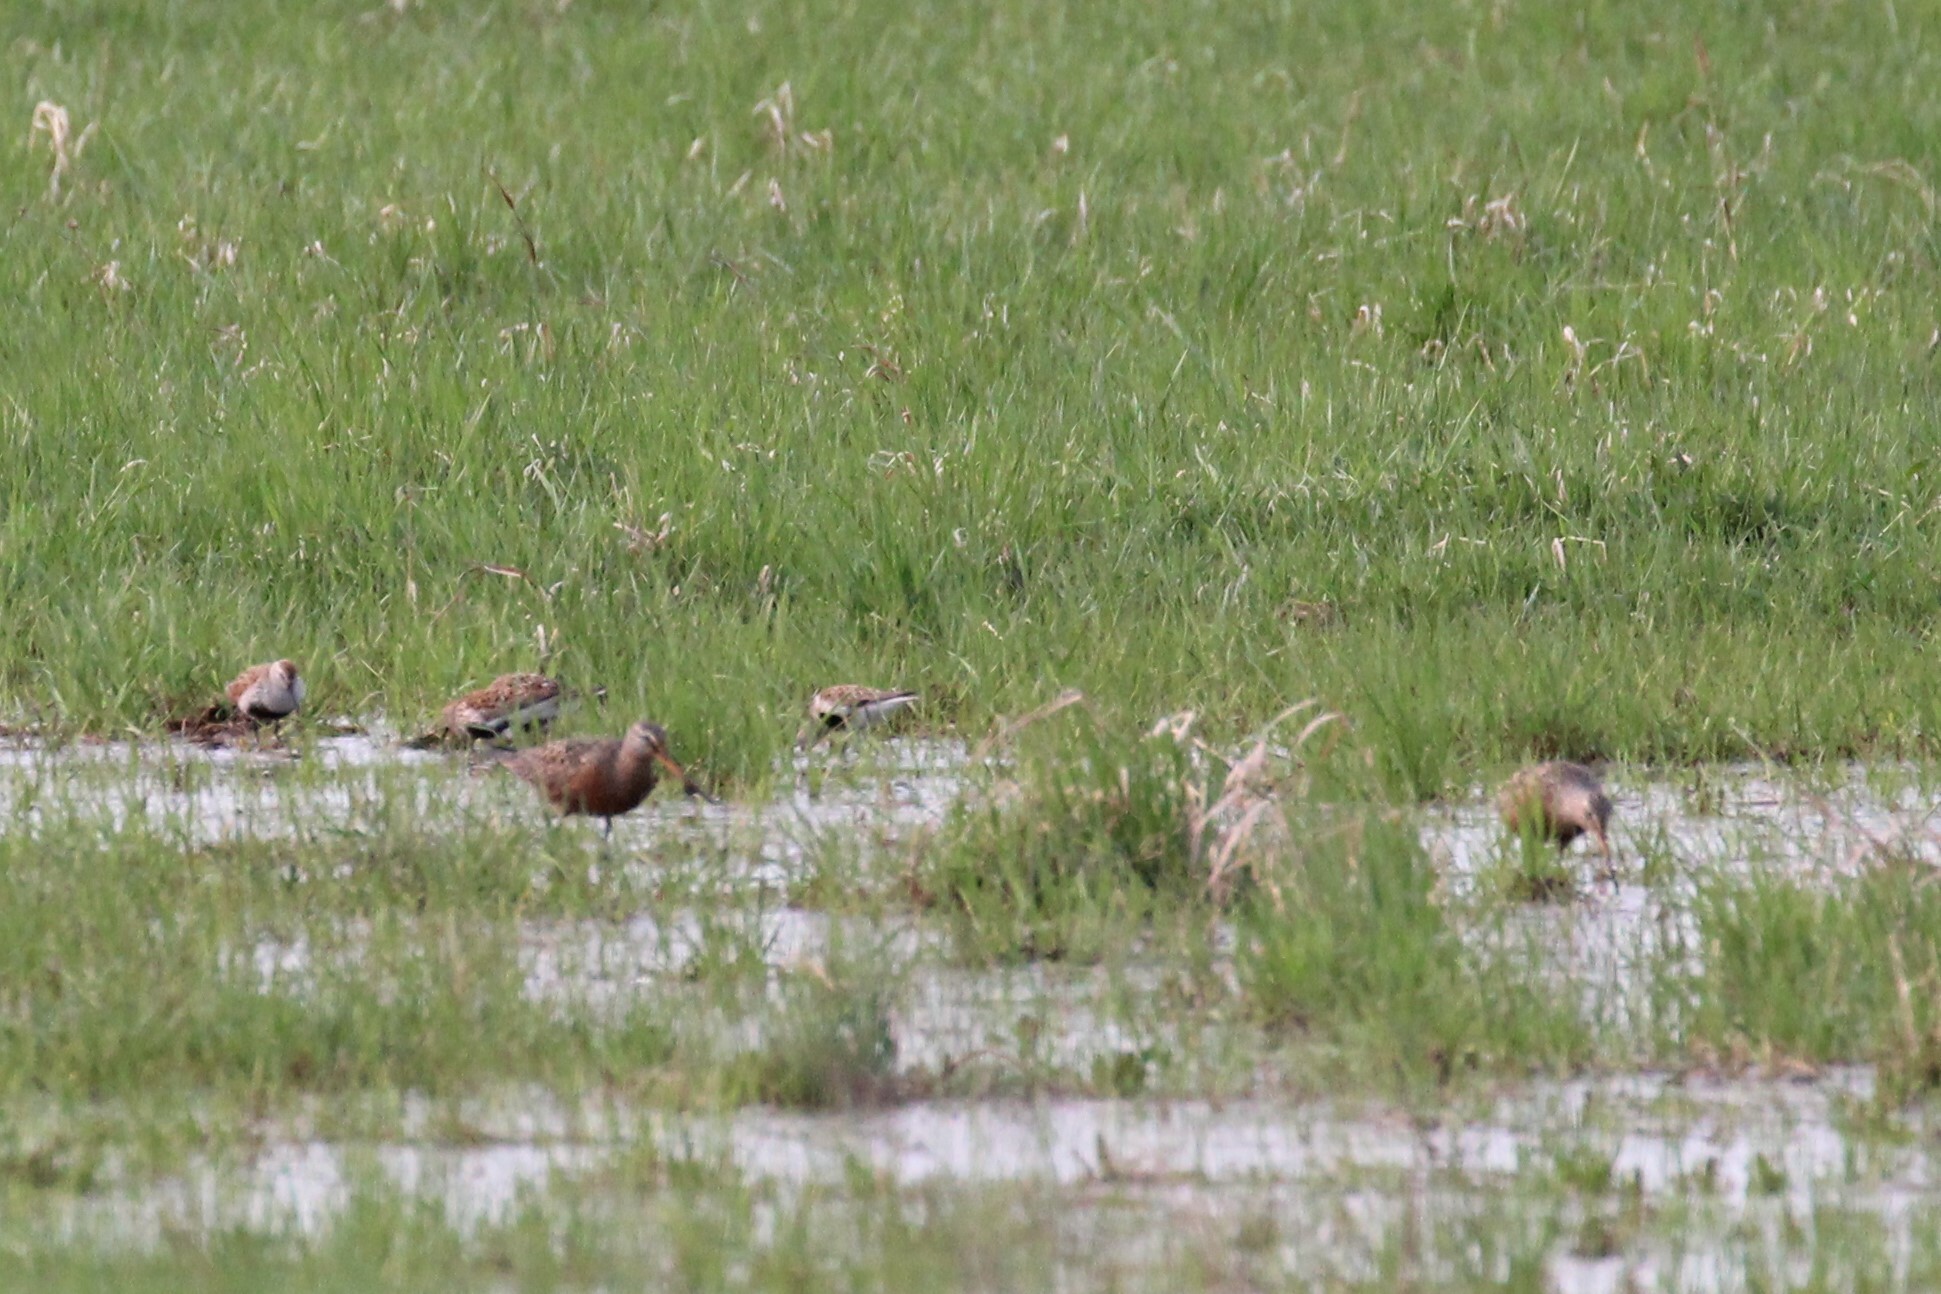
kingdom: Animalia
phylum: Chordata
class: Aves
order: Charadriiformes
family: Scolopacidae
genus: Calidris
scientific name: Calidris alpina
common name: Dunlin
